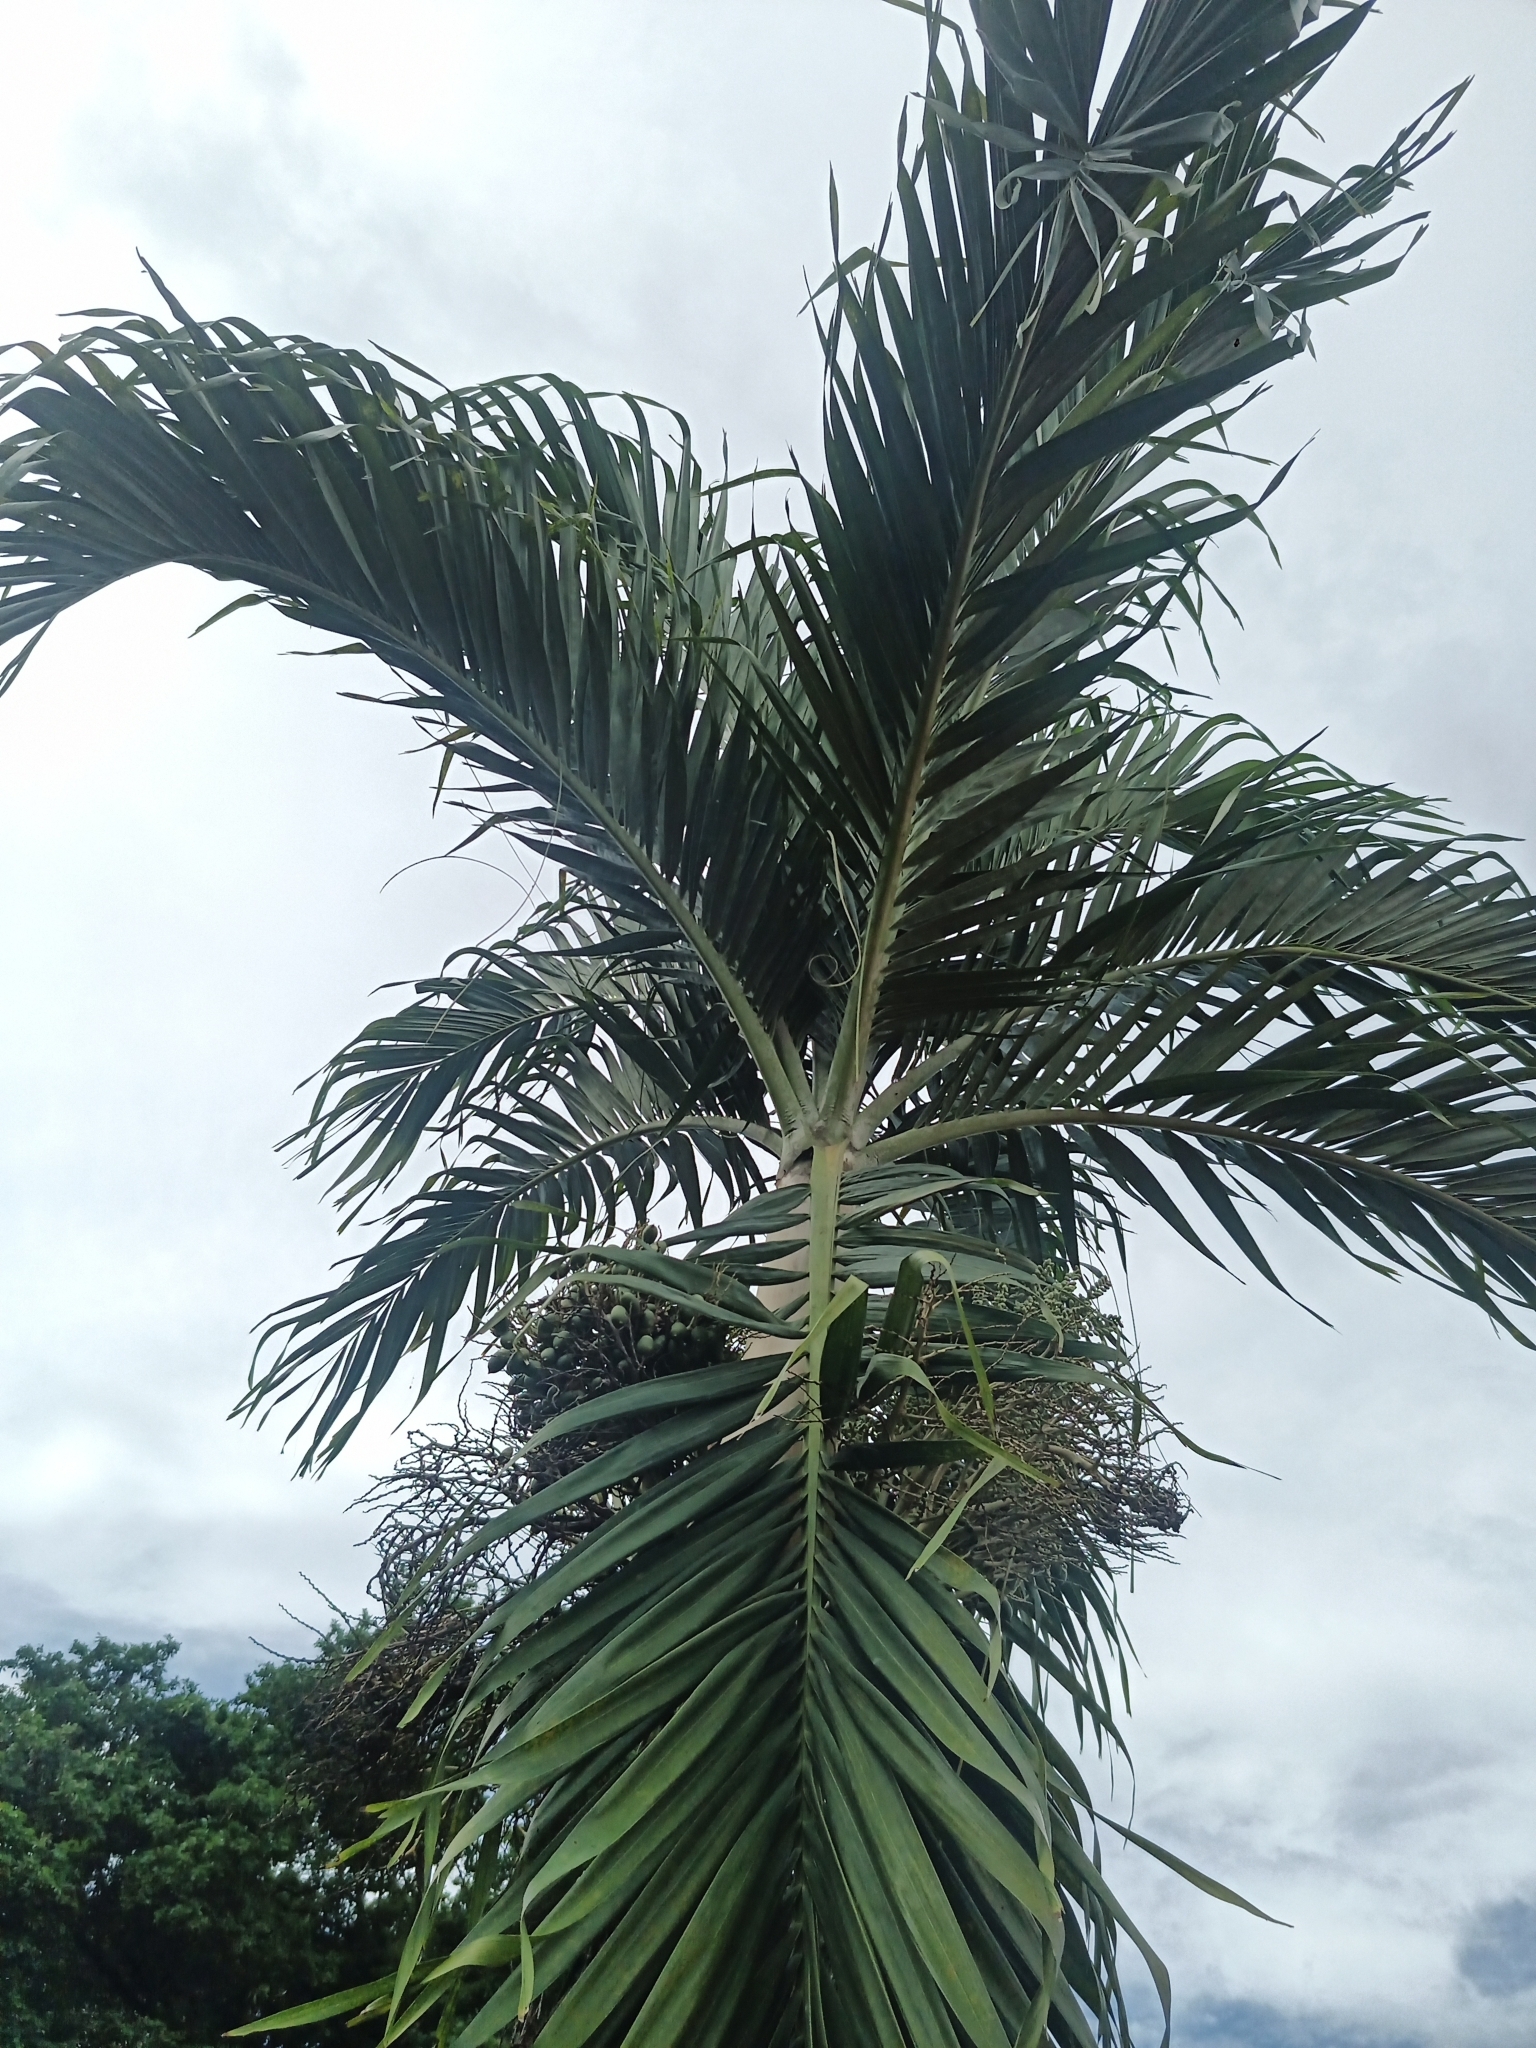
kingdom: Plantae
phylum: Tracheophyta
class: Liliopsida
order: Arecales
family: Arecaceae
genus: Adonidia
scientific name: Adonidia merrillii
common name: Manila palm
